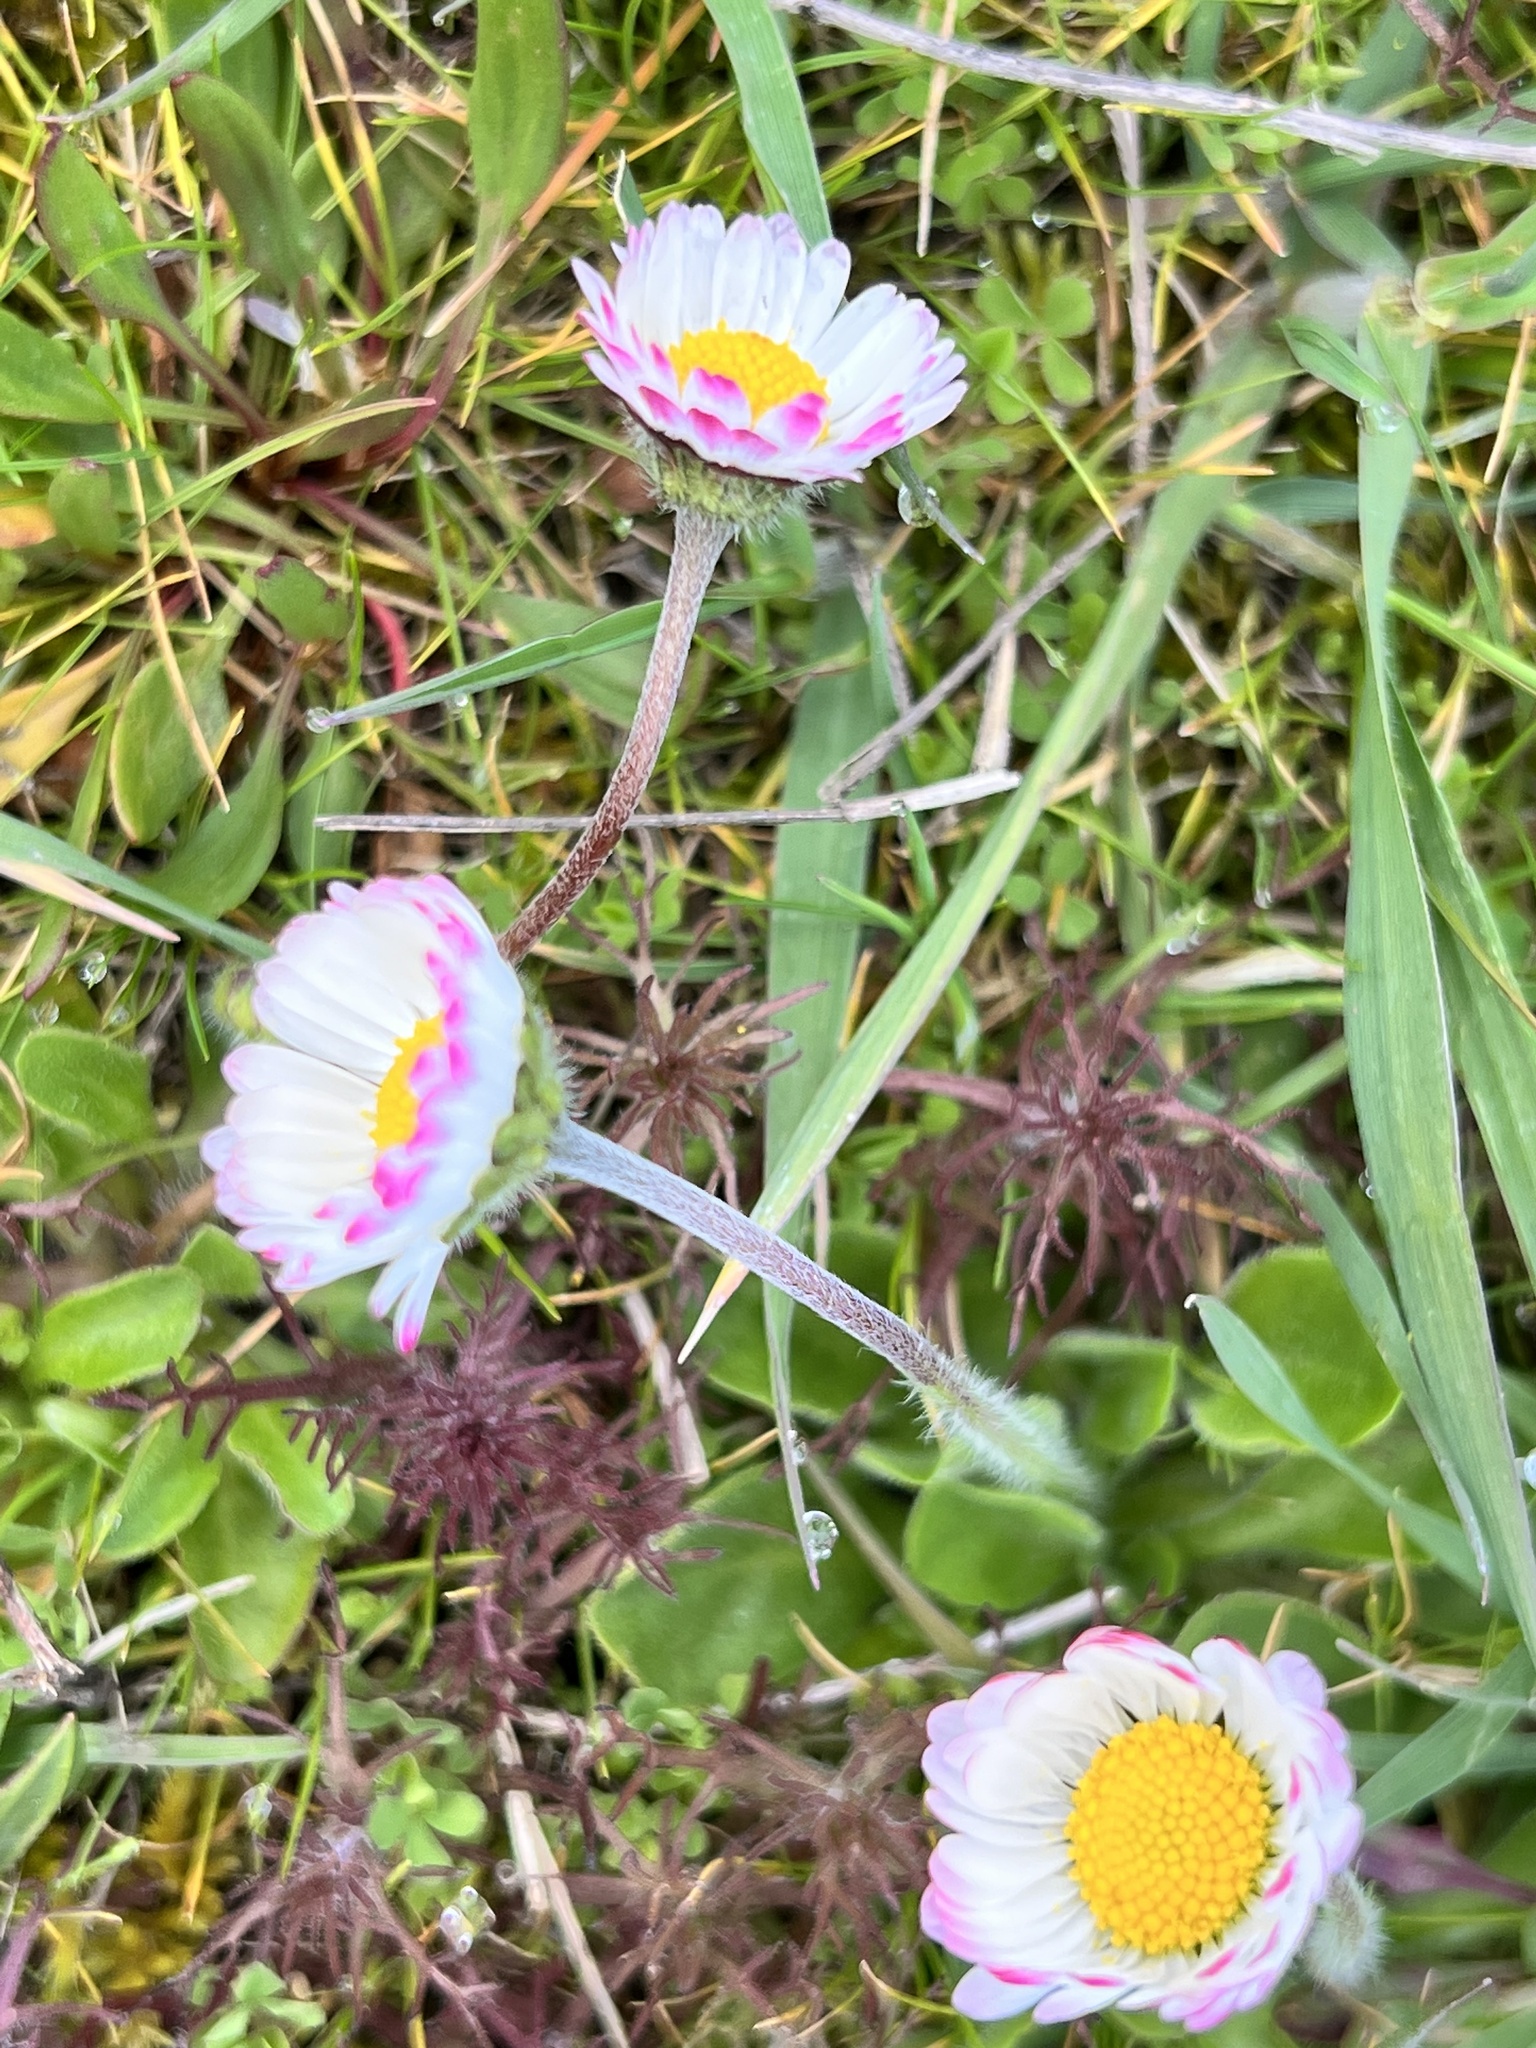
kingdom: Plantae
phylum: Tracheophyta
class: Magnoliopsida
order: Asterales
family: Asteraceae
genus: Bellis
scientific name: Bellis perennis
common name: Lawndaisy
